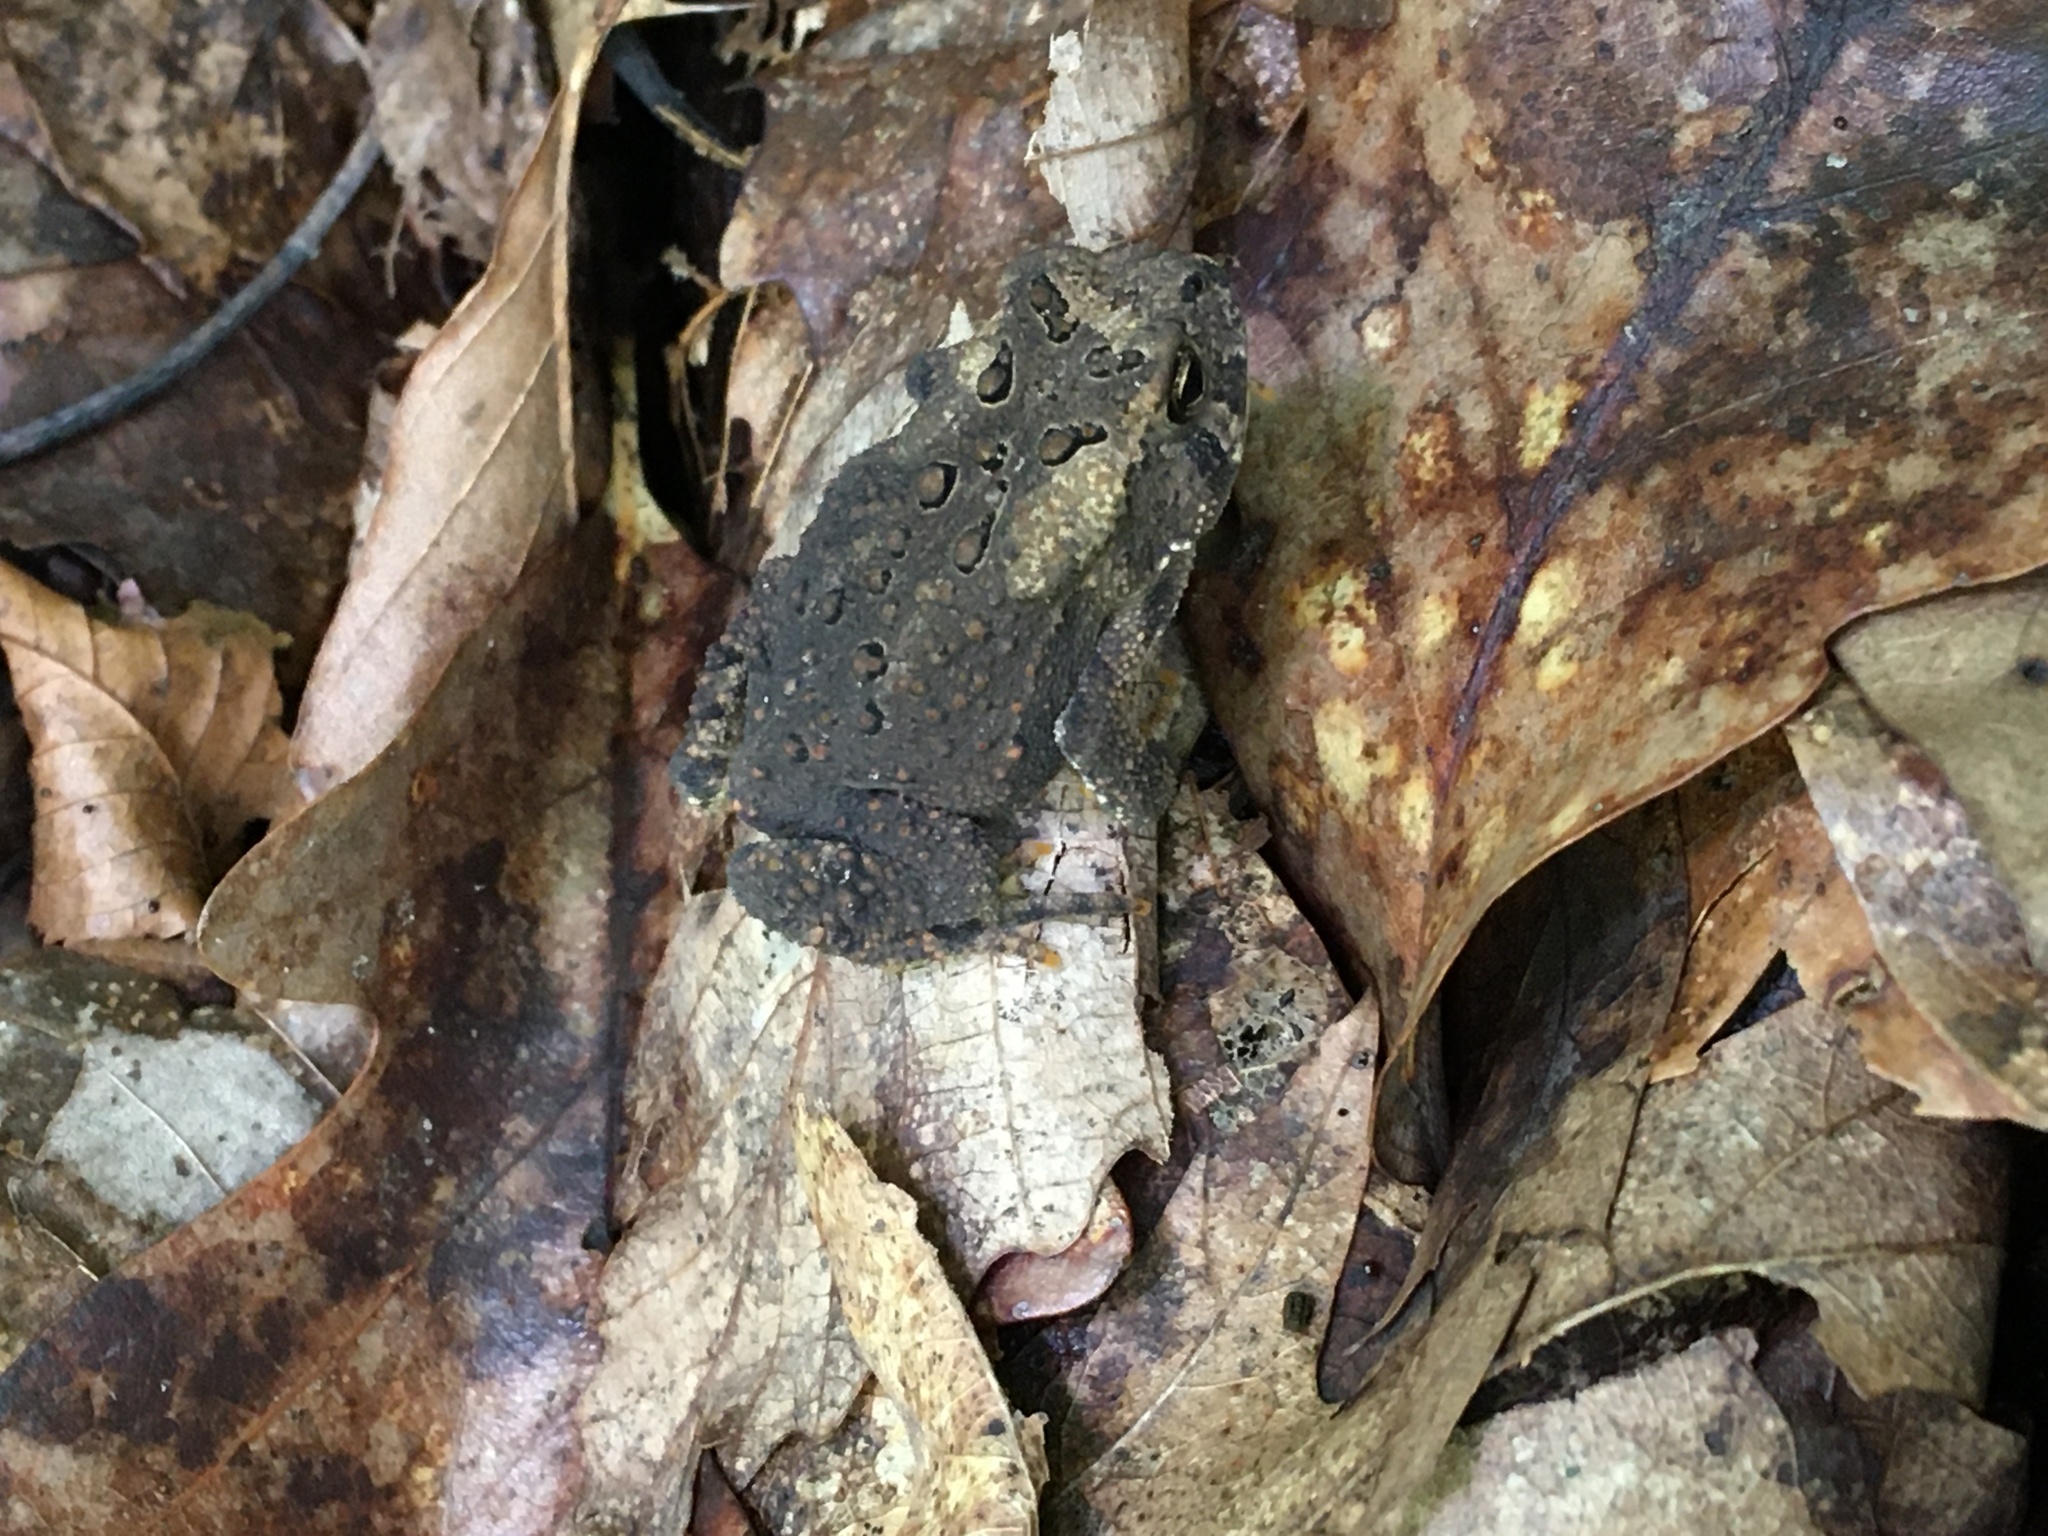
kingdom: Animalia
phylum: Chordata
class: Amphibia
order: Anura
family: Bufonidae
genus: Anaxyrus
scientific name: Anaxyrus americanus
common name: American toad
